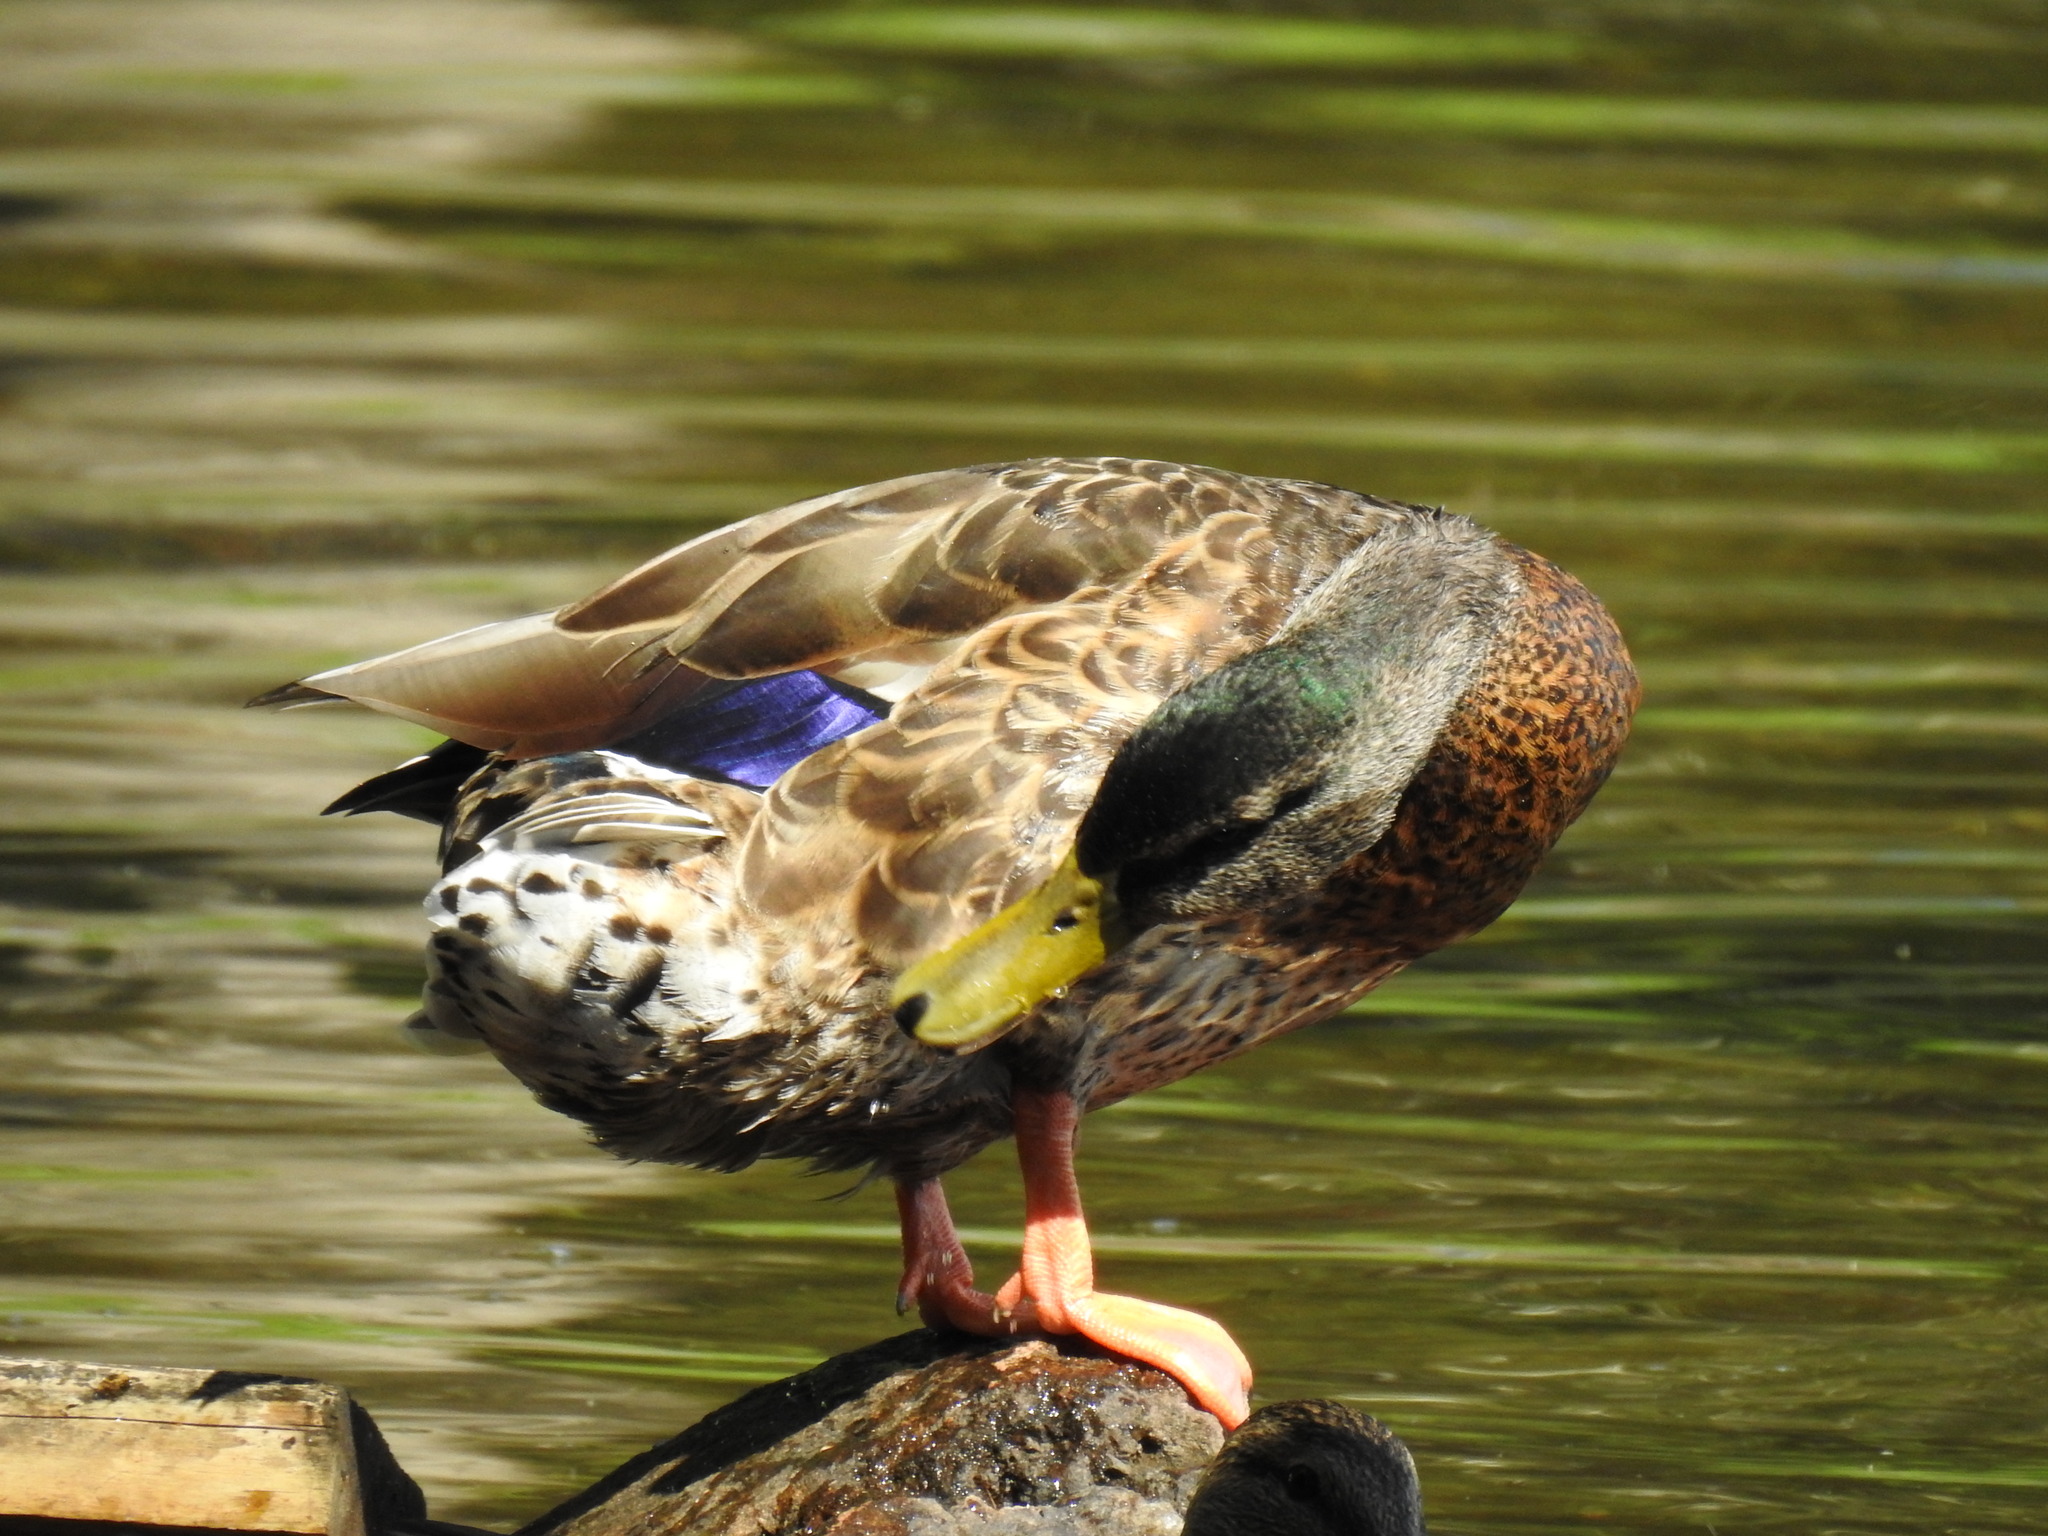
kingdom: Animalia
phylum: Chordata
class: Aves
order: Anseriformes
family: Anatidae
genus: Anas
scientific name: Anas platyrhynchos
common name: Mallard
